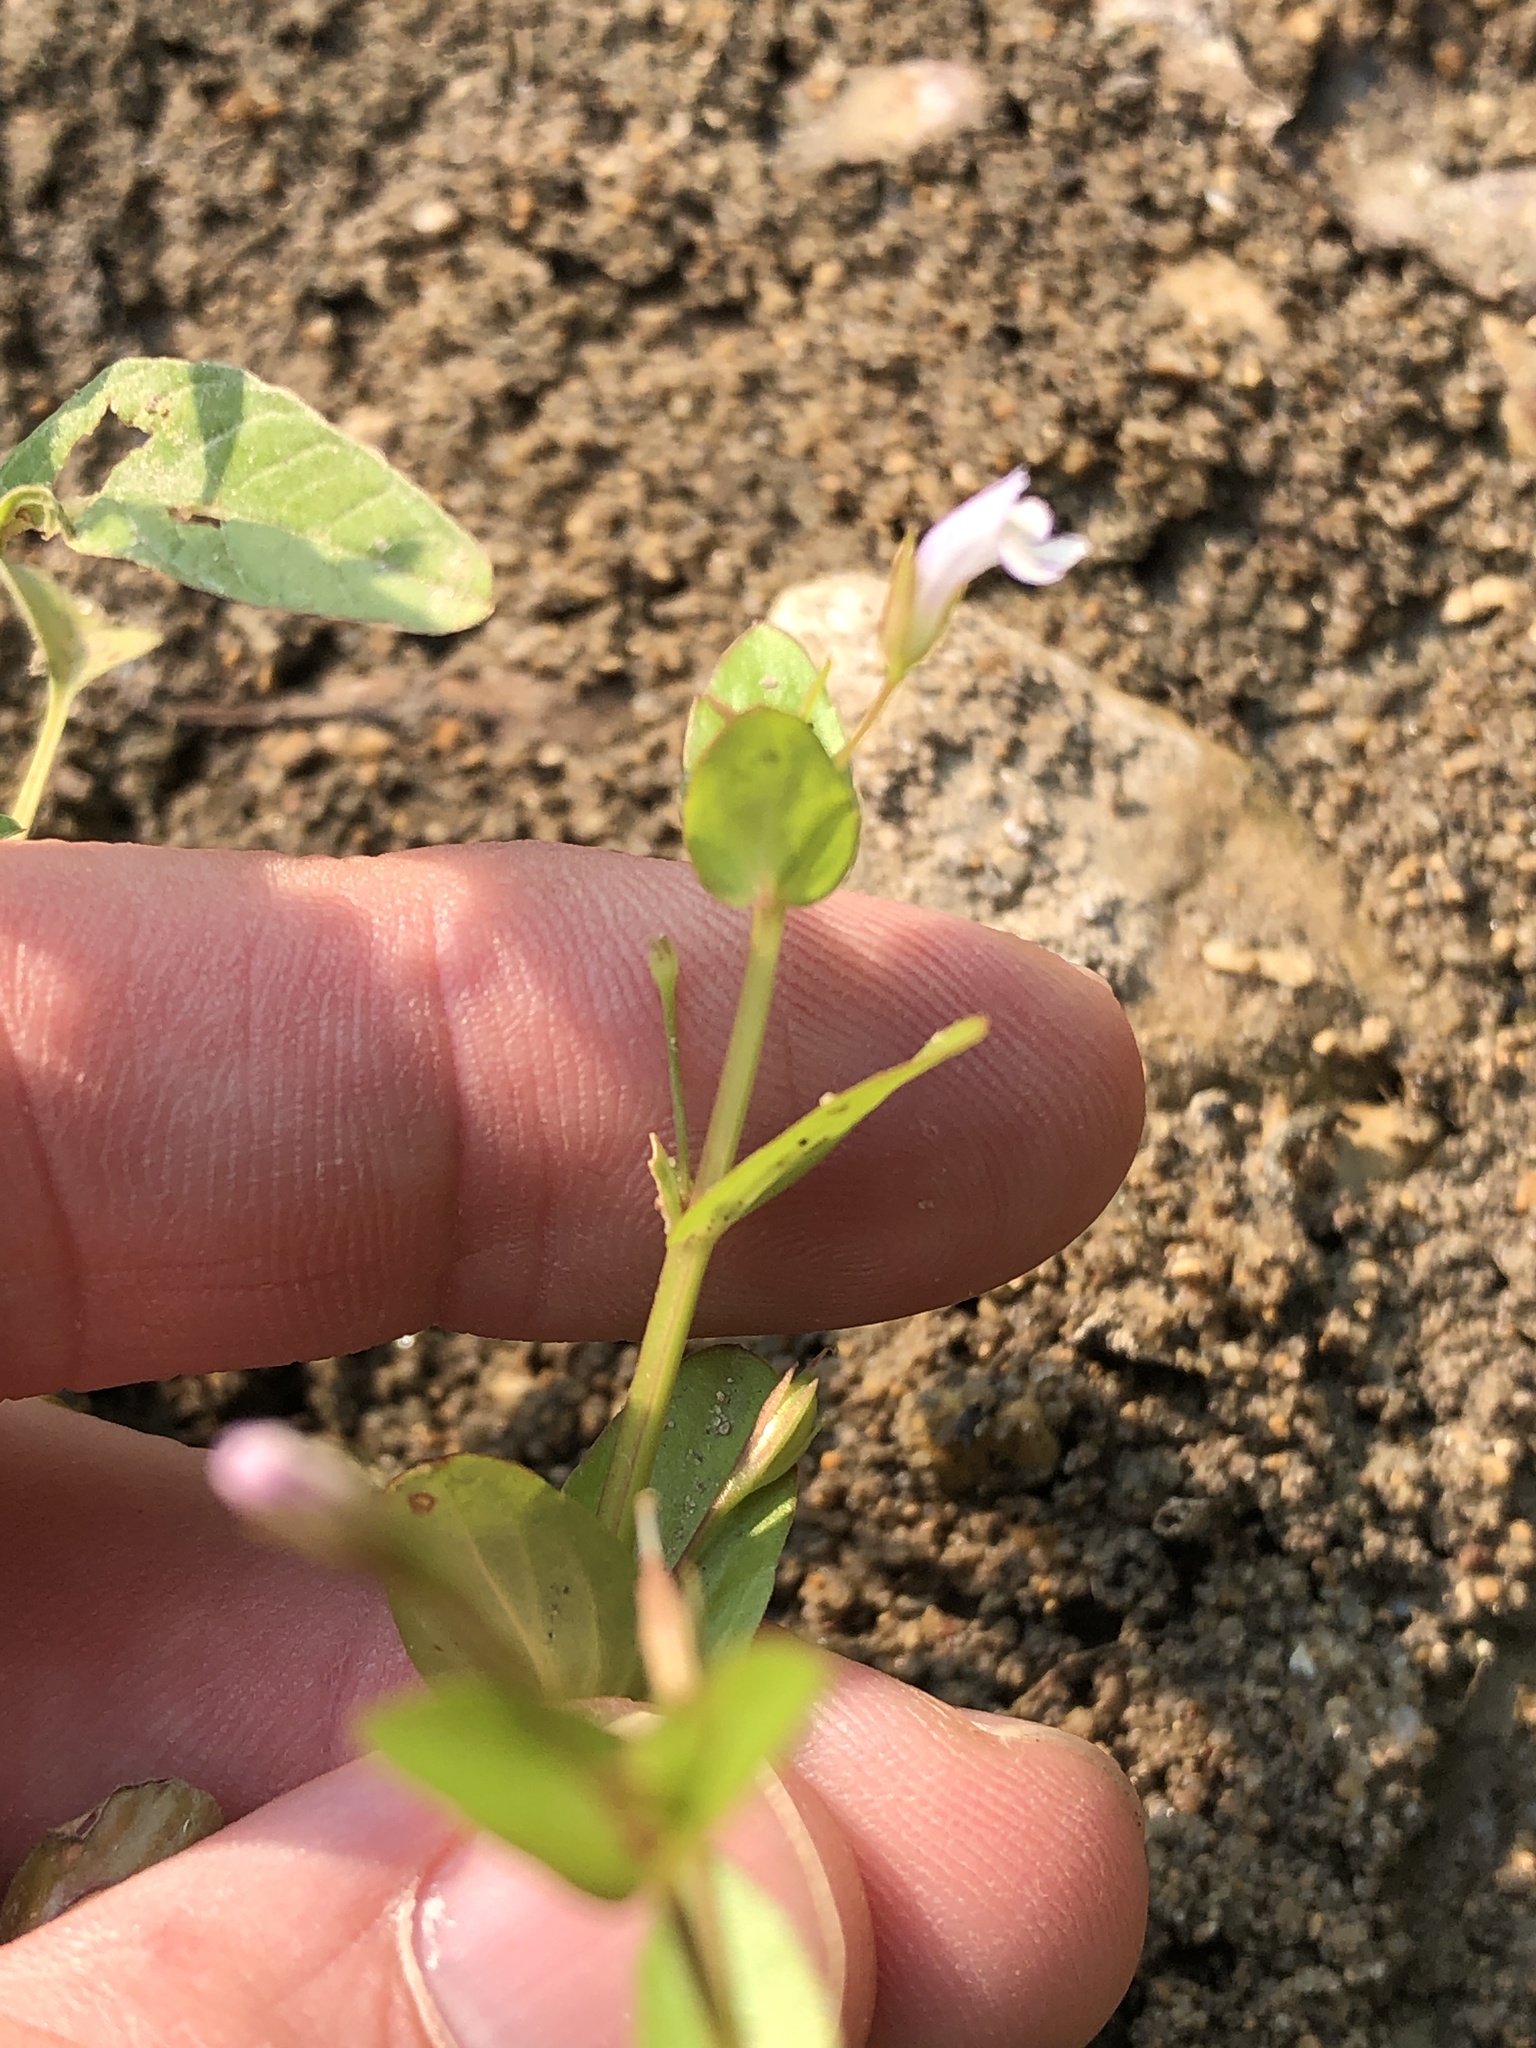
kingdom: Plantae
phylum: Tracheophyta
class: Magnoliopsida
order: Lamiales
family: Linderniaceae
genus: Lindernia
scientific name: Lindernia dubia
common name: Annual false pimpernel
